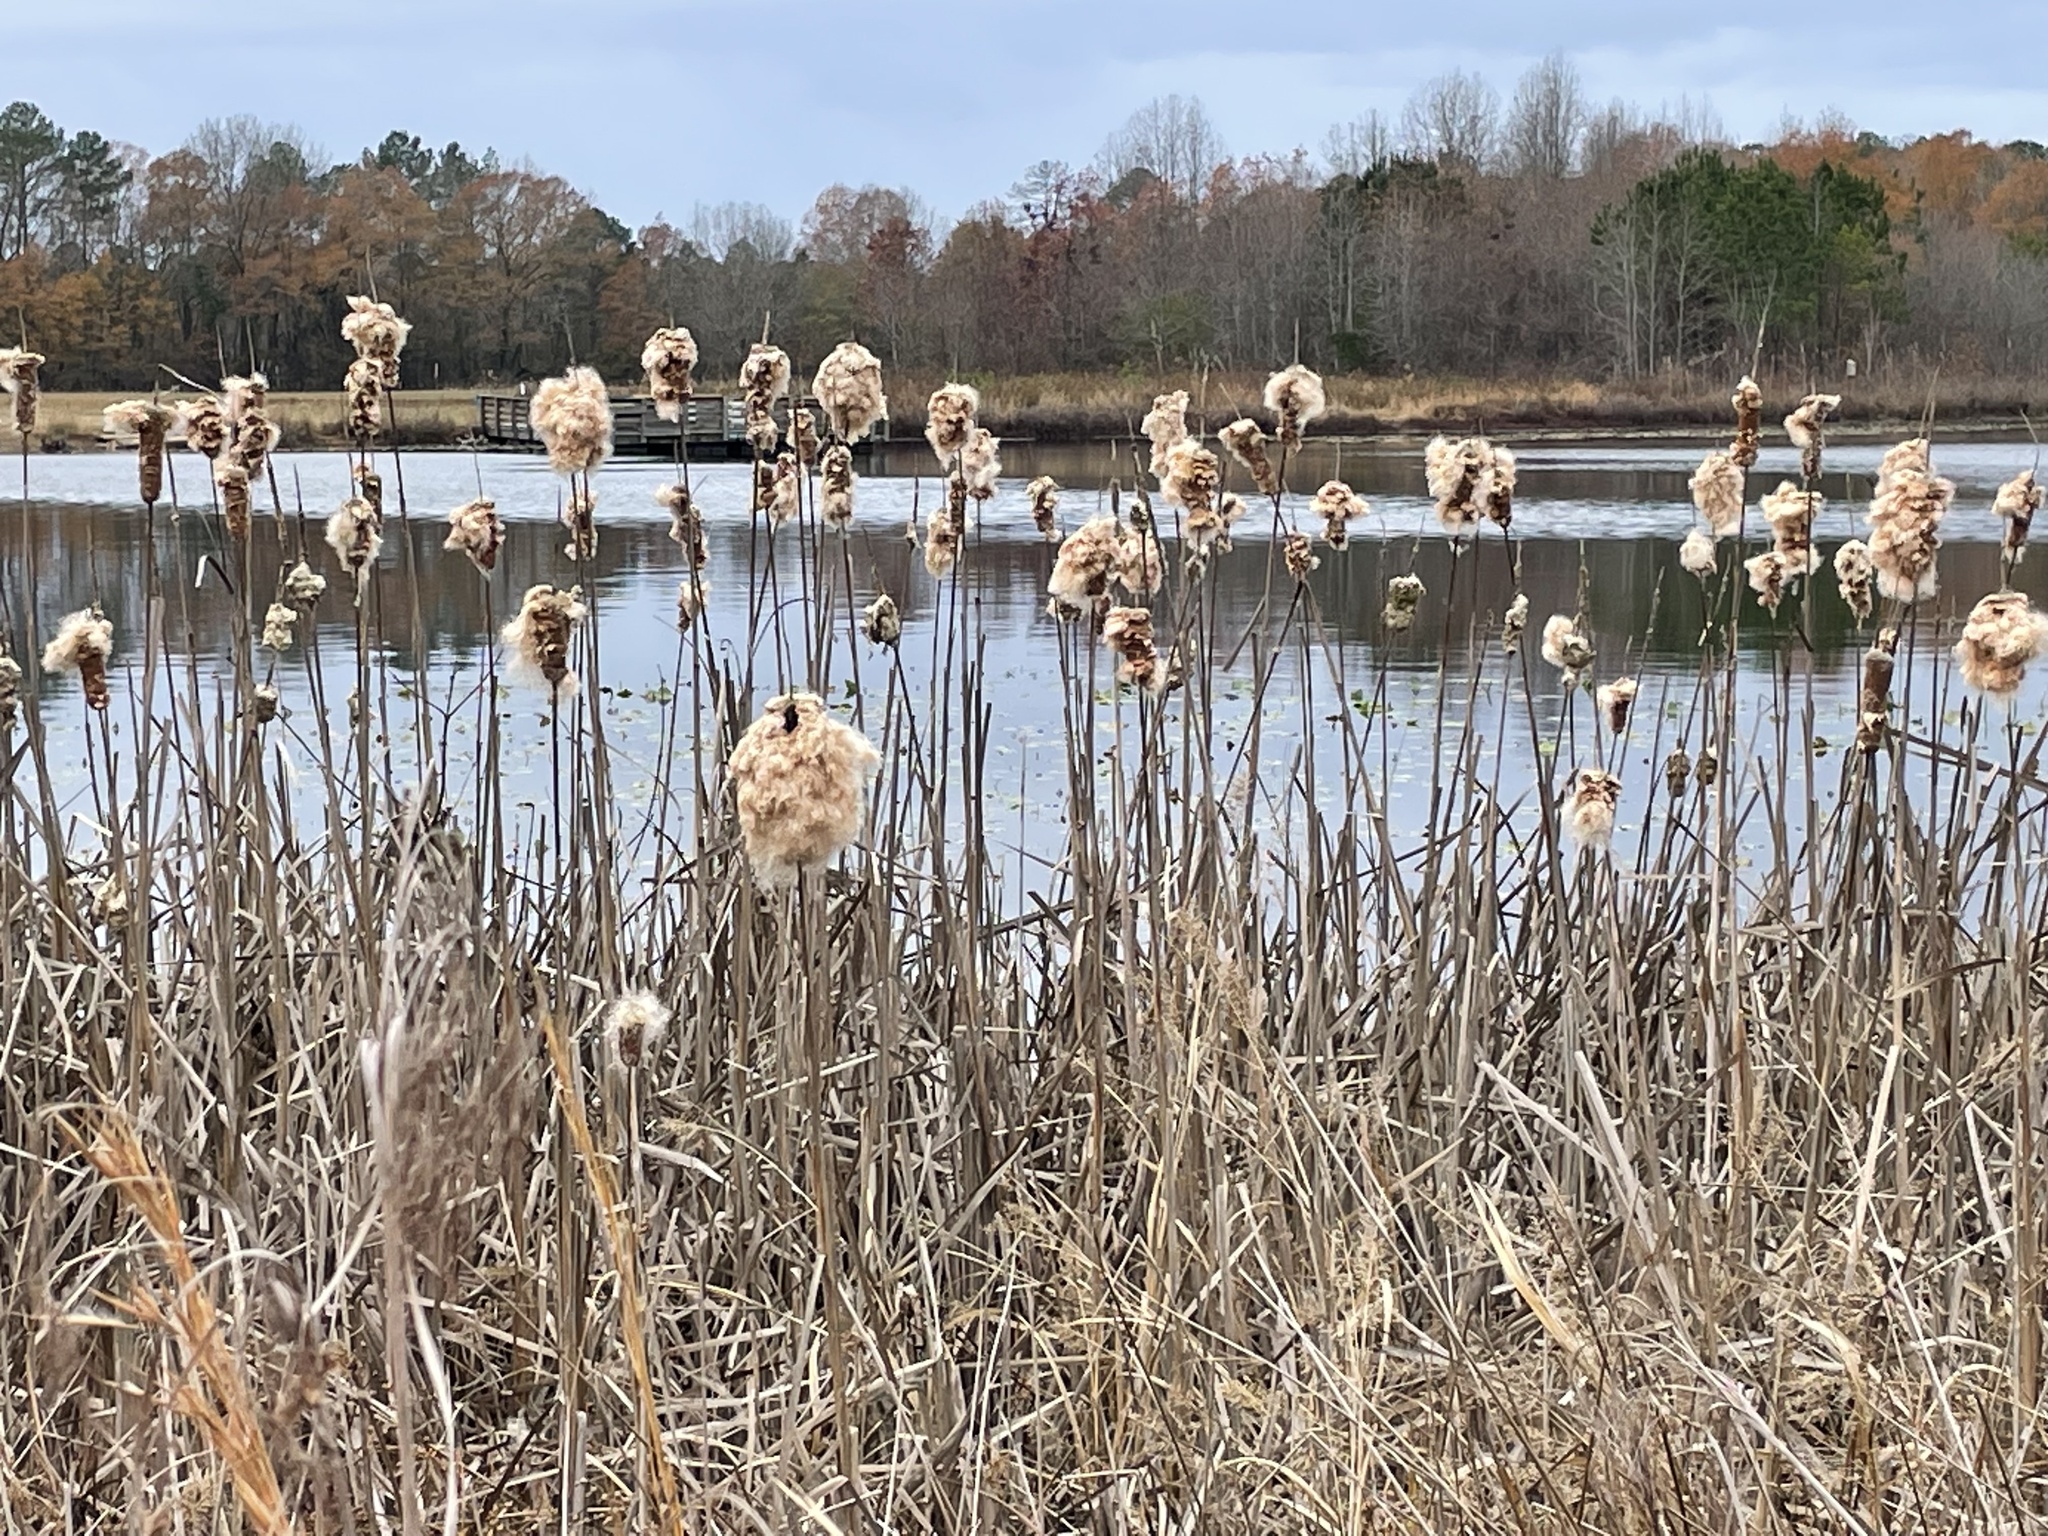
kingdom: Plantae
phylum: Tracheophyta
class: Liliopsida
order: Poales
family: Typhaceae
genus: Typha
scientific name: Typha latifolia
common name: Broadleaf cattail
